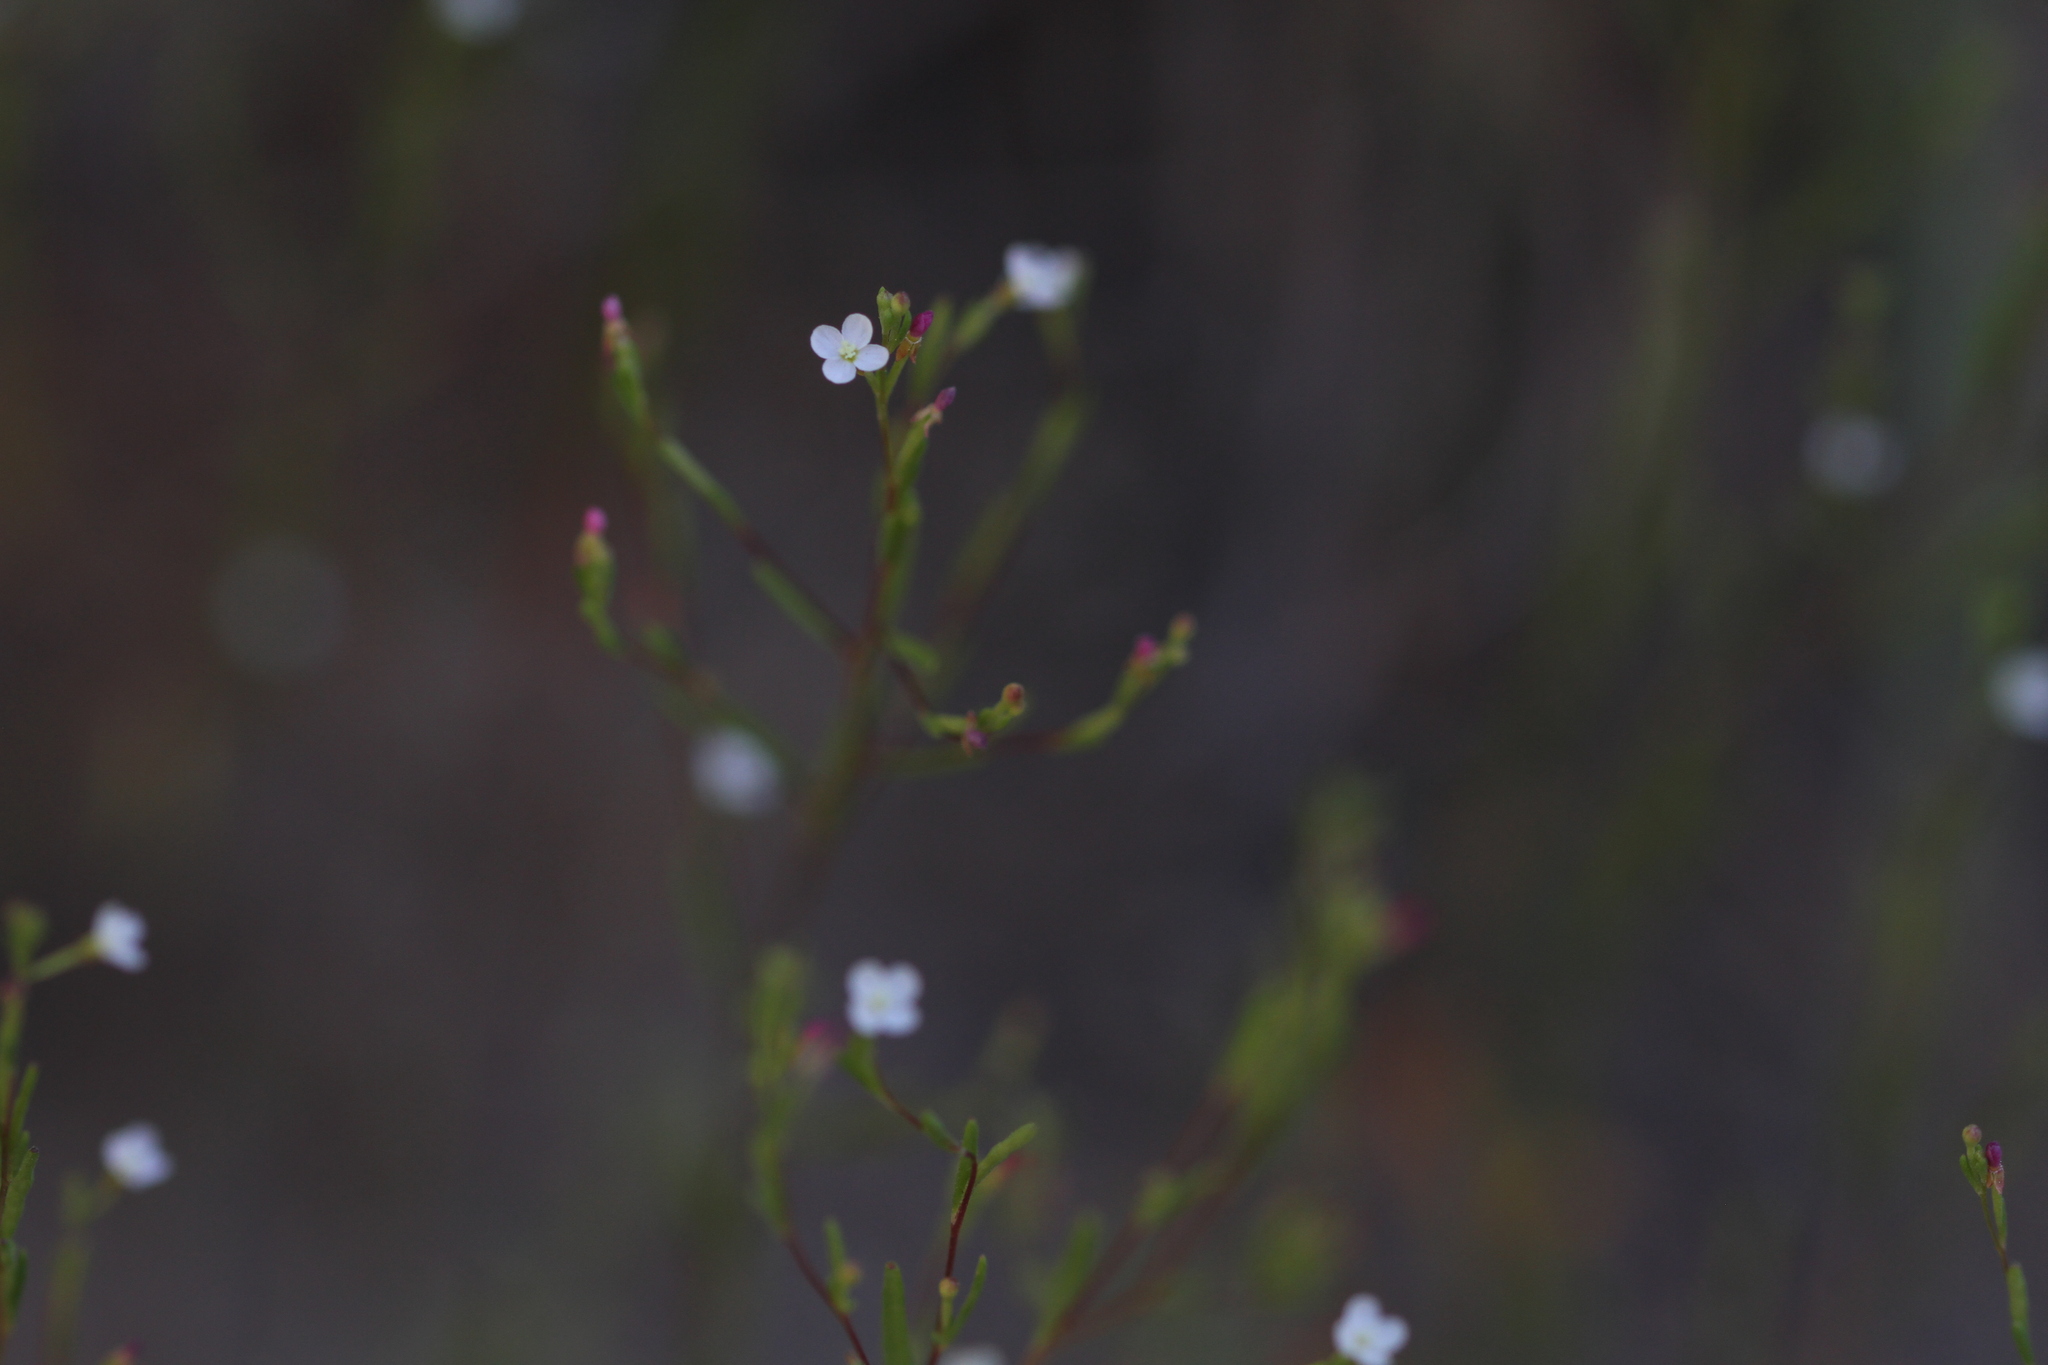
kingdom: Plantae
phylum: Tracheophyta
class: Magnoliopsida
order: Myrtales
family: Onagraceae
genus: Gayophytum
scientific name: Gayophytum diffusum
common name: Big-flowered groundsmoke
